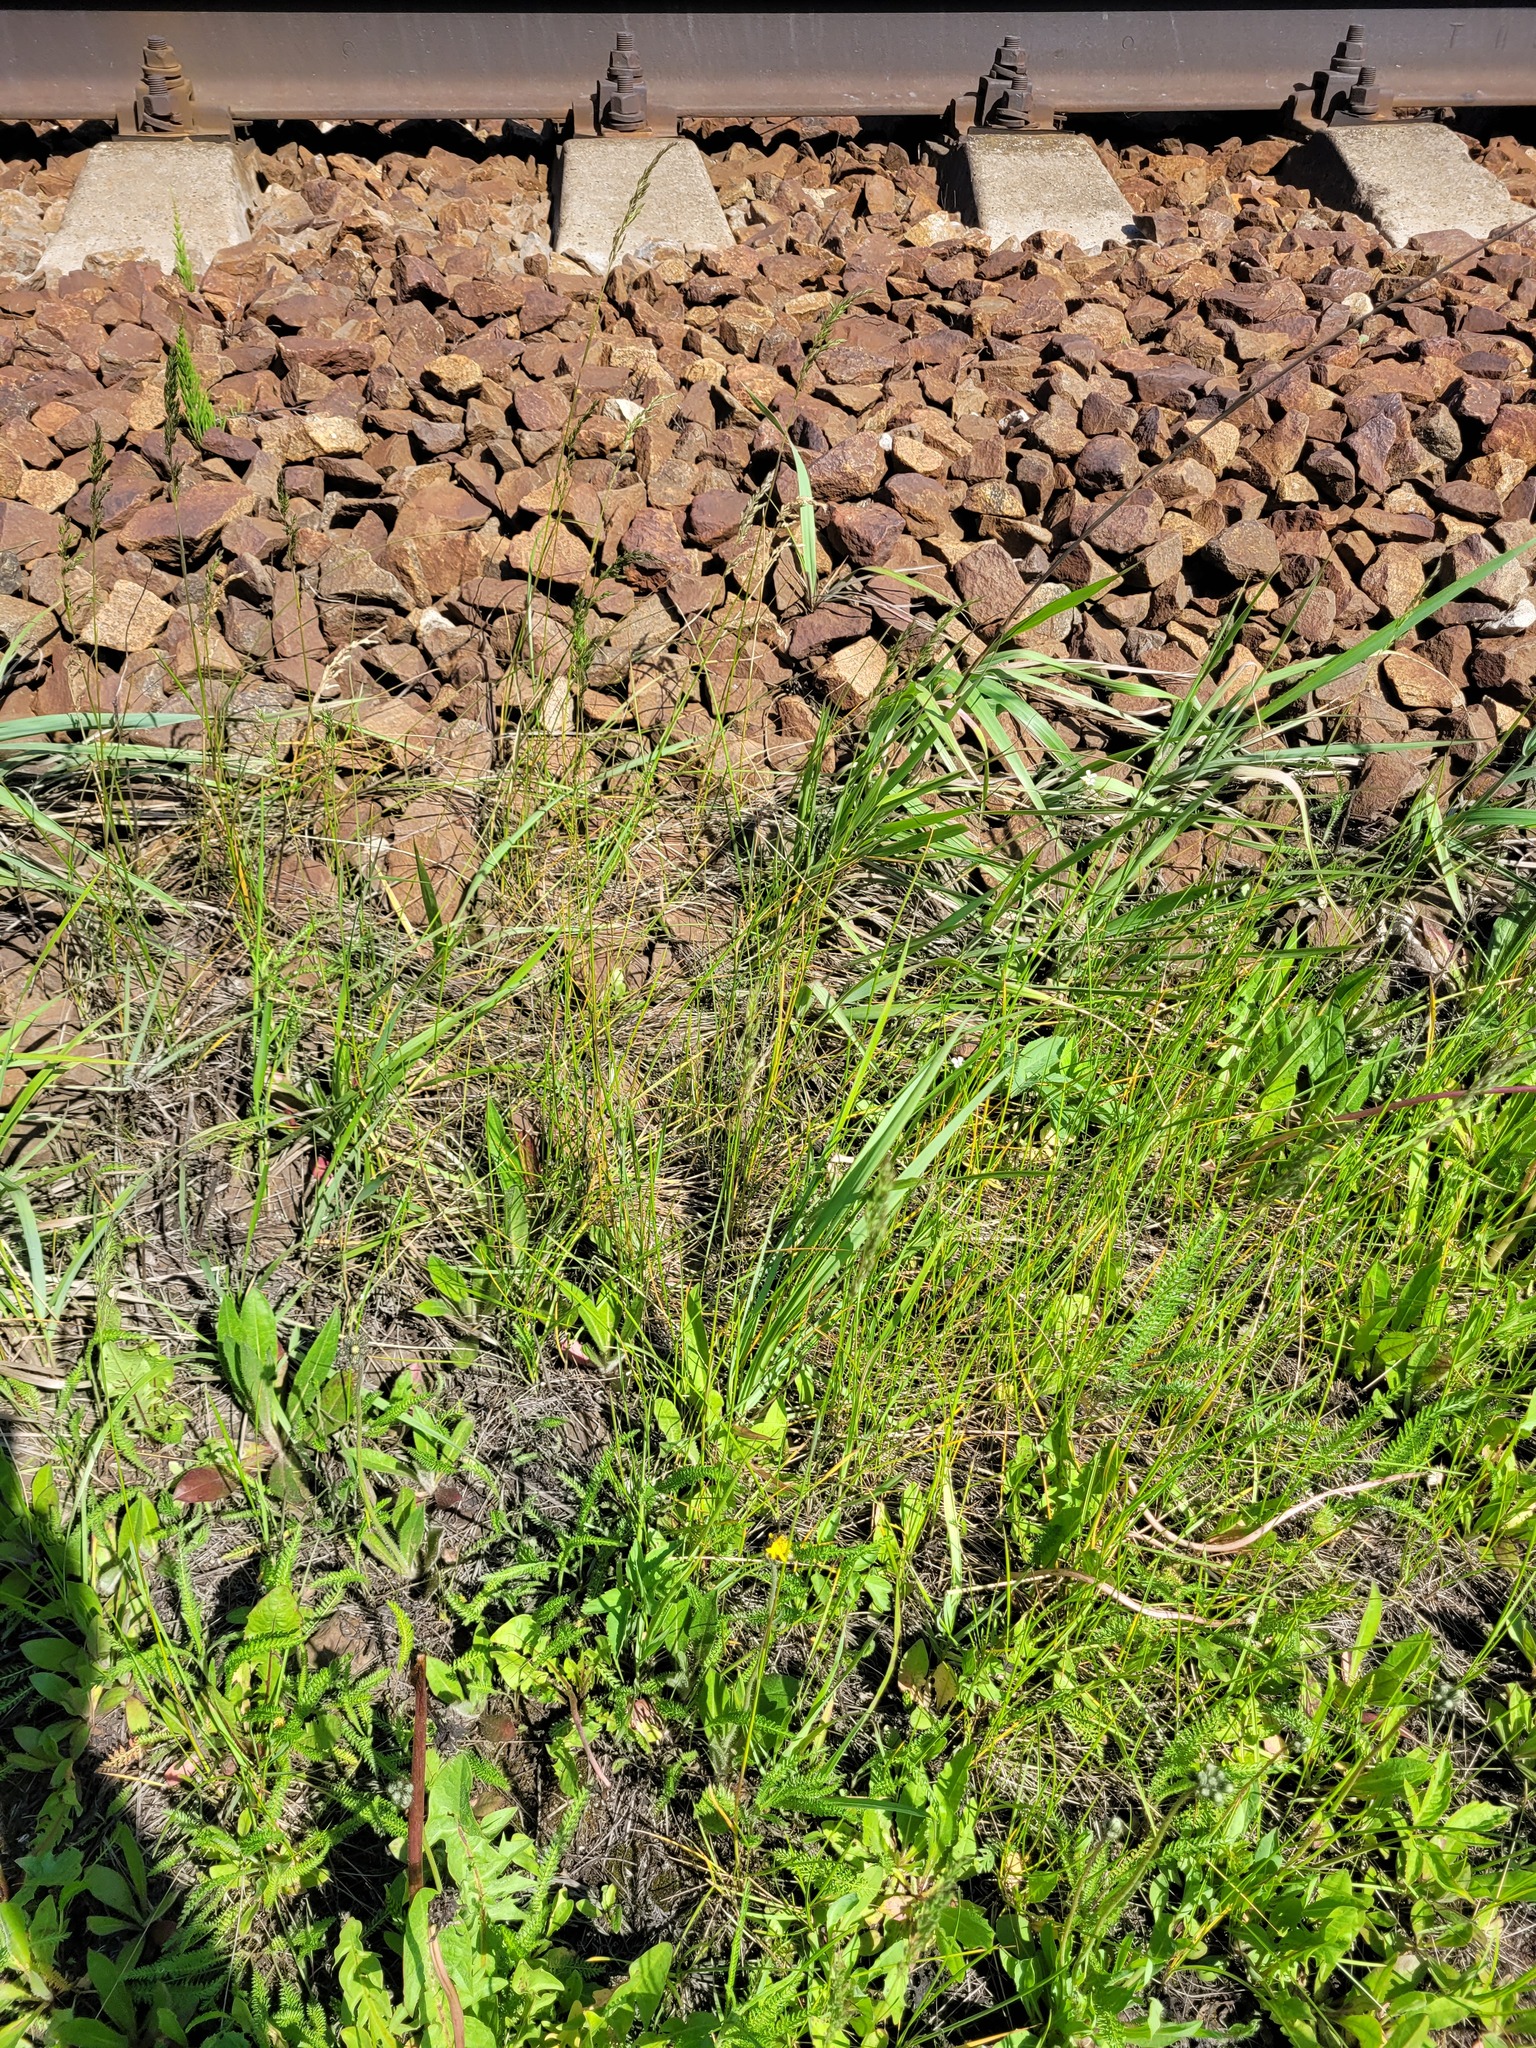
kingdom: Plantae
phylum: Tracheophyta
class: Liliopsida
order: Poales
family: Poaceae
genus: Poa
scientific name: Poa angustifolia
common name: Narrow-leaved meadow-grass
